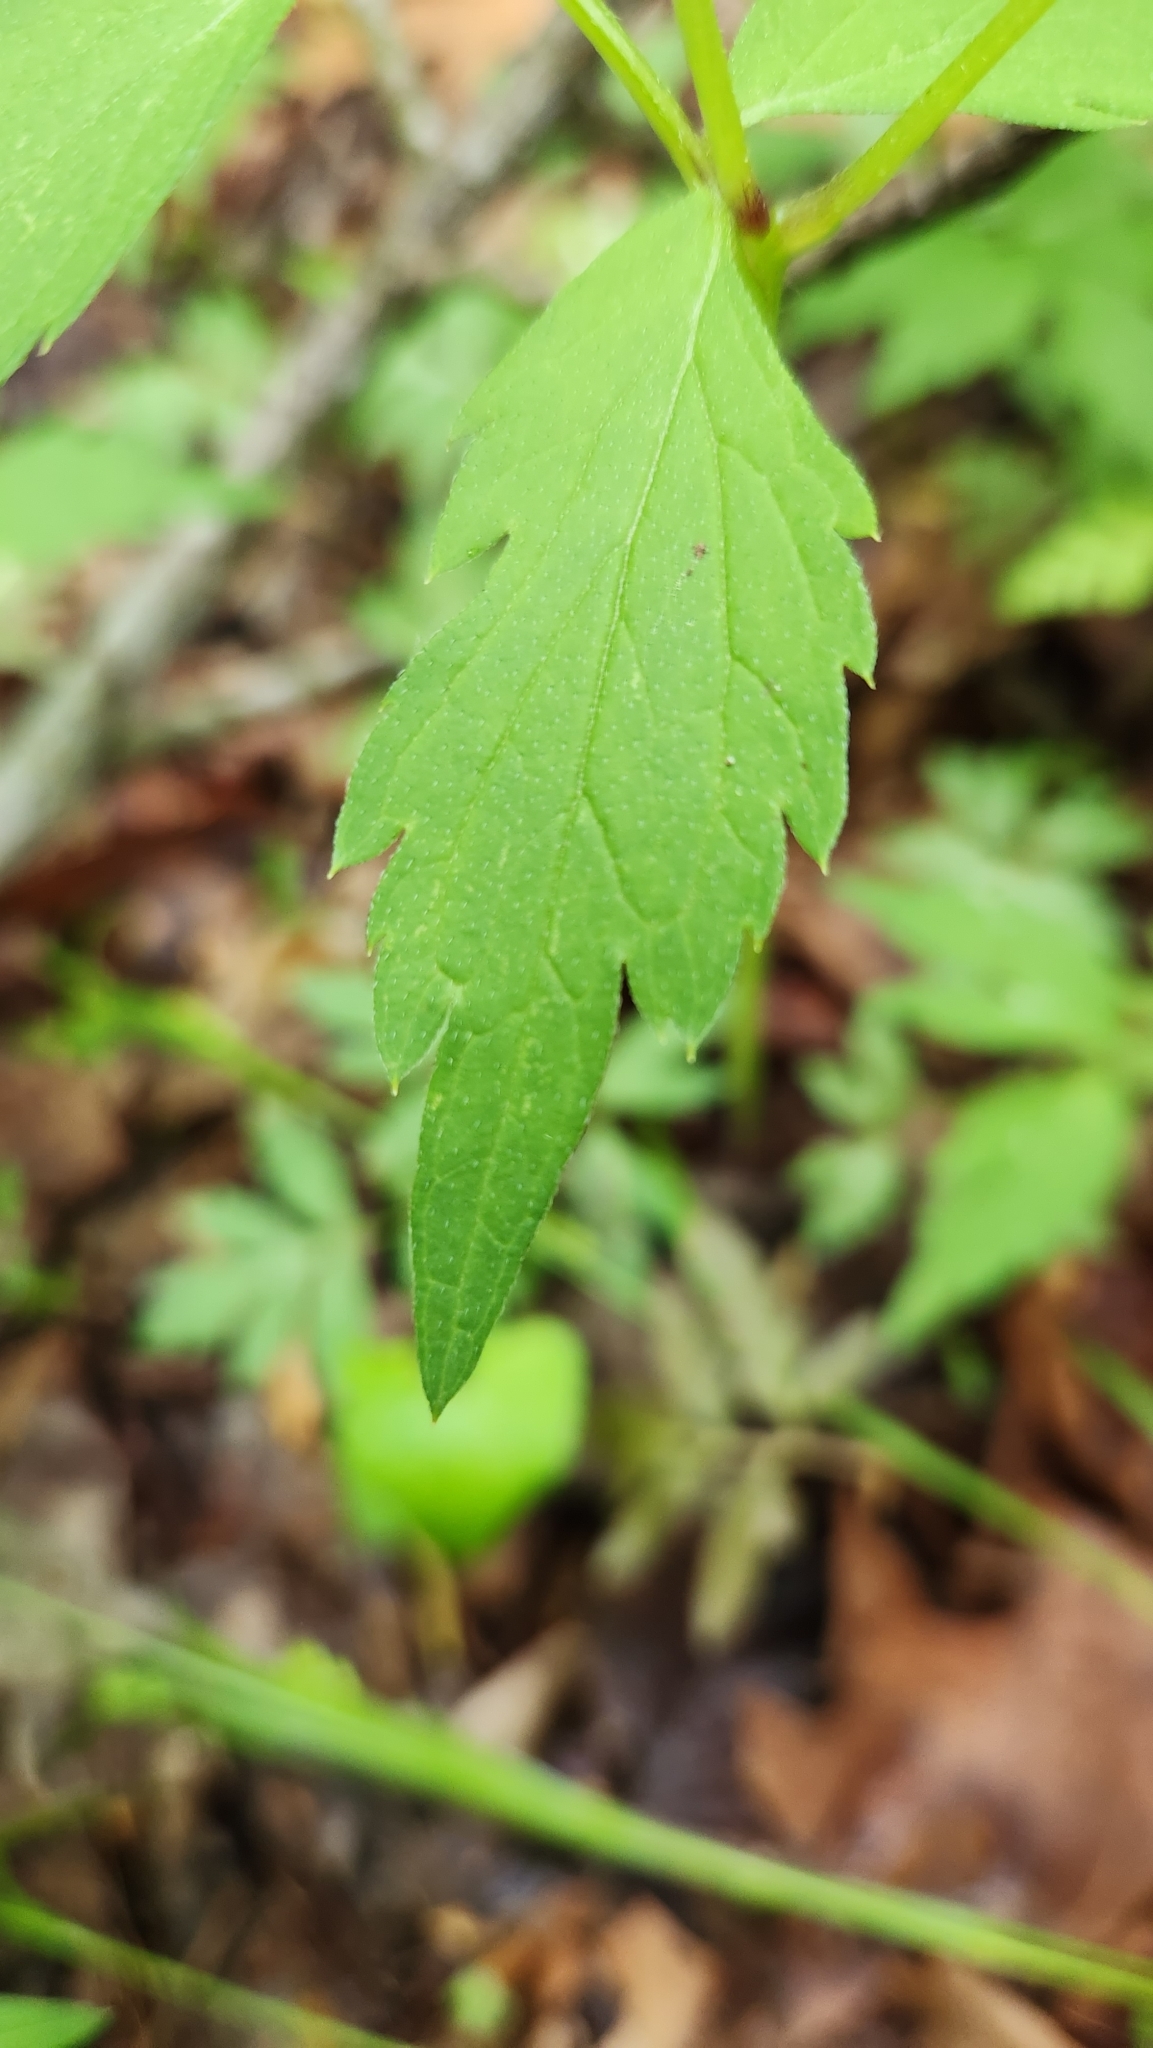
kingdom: Plantae
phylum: Tracheophyta
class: Magnoliopsida
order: Boraginales
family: Hydrophyllaceae
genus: Hydrophyllum
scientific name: Hydrophyllum virginianum
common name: Virginia waterleaf
